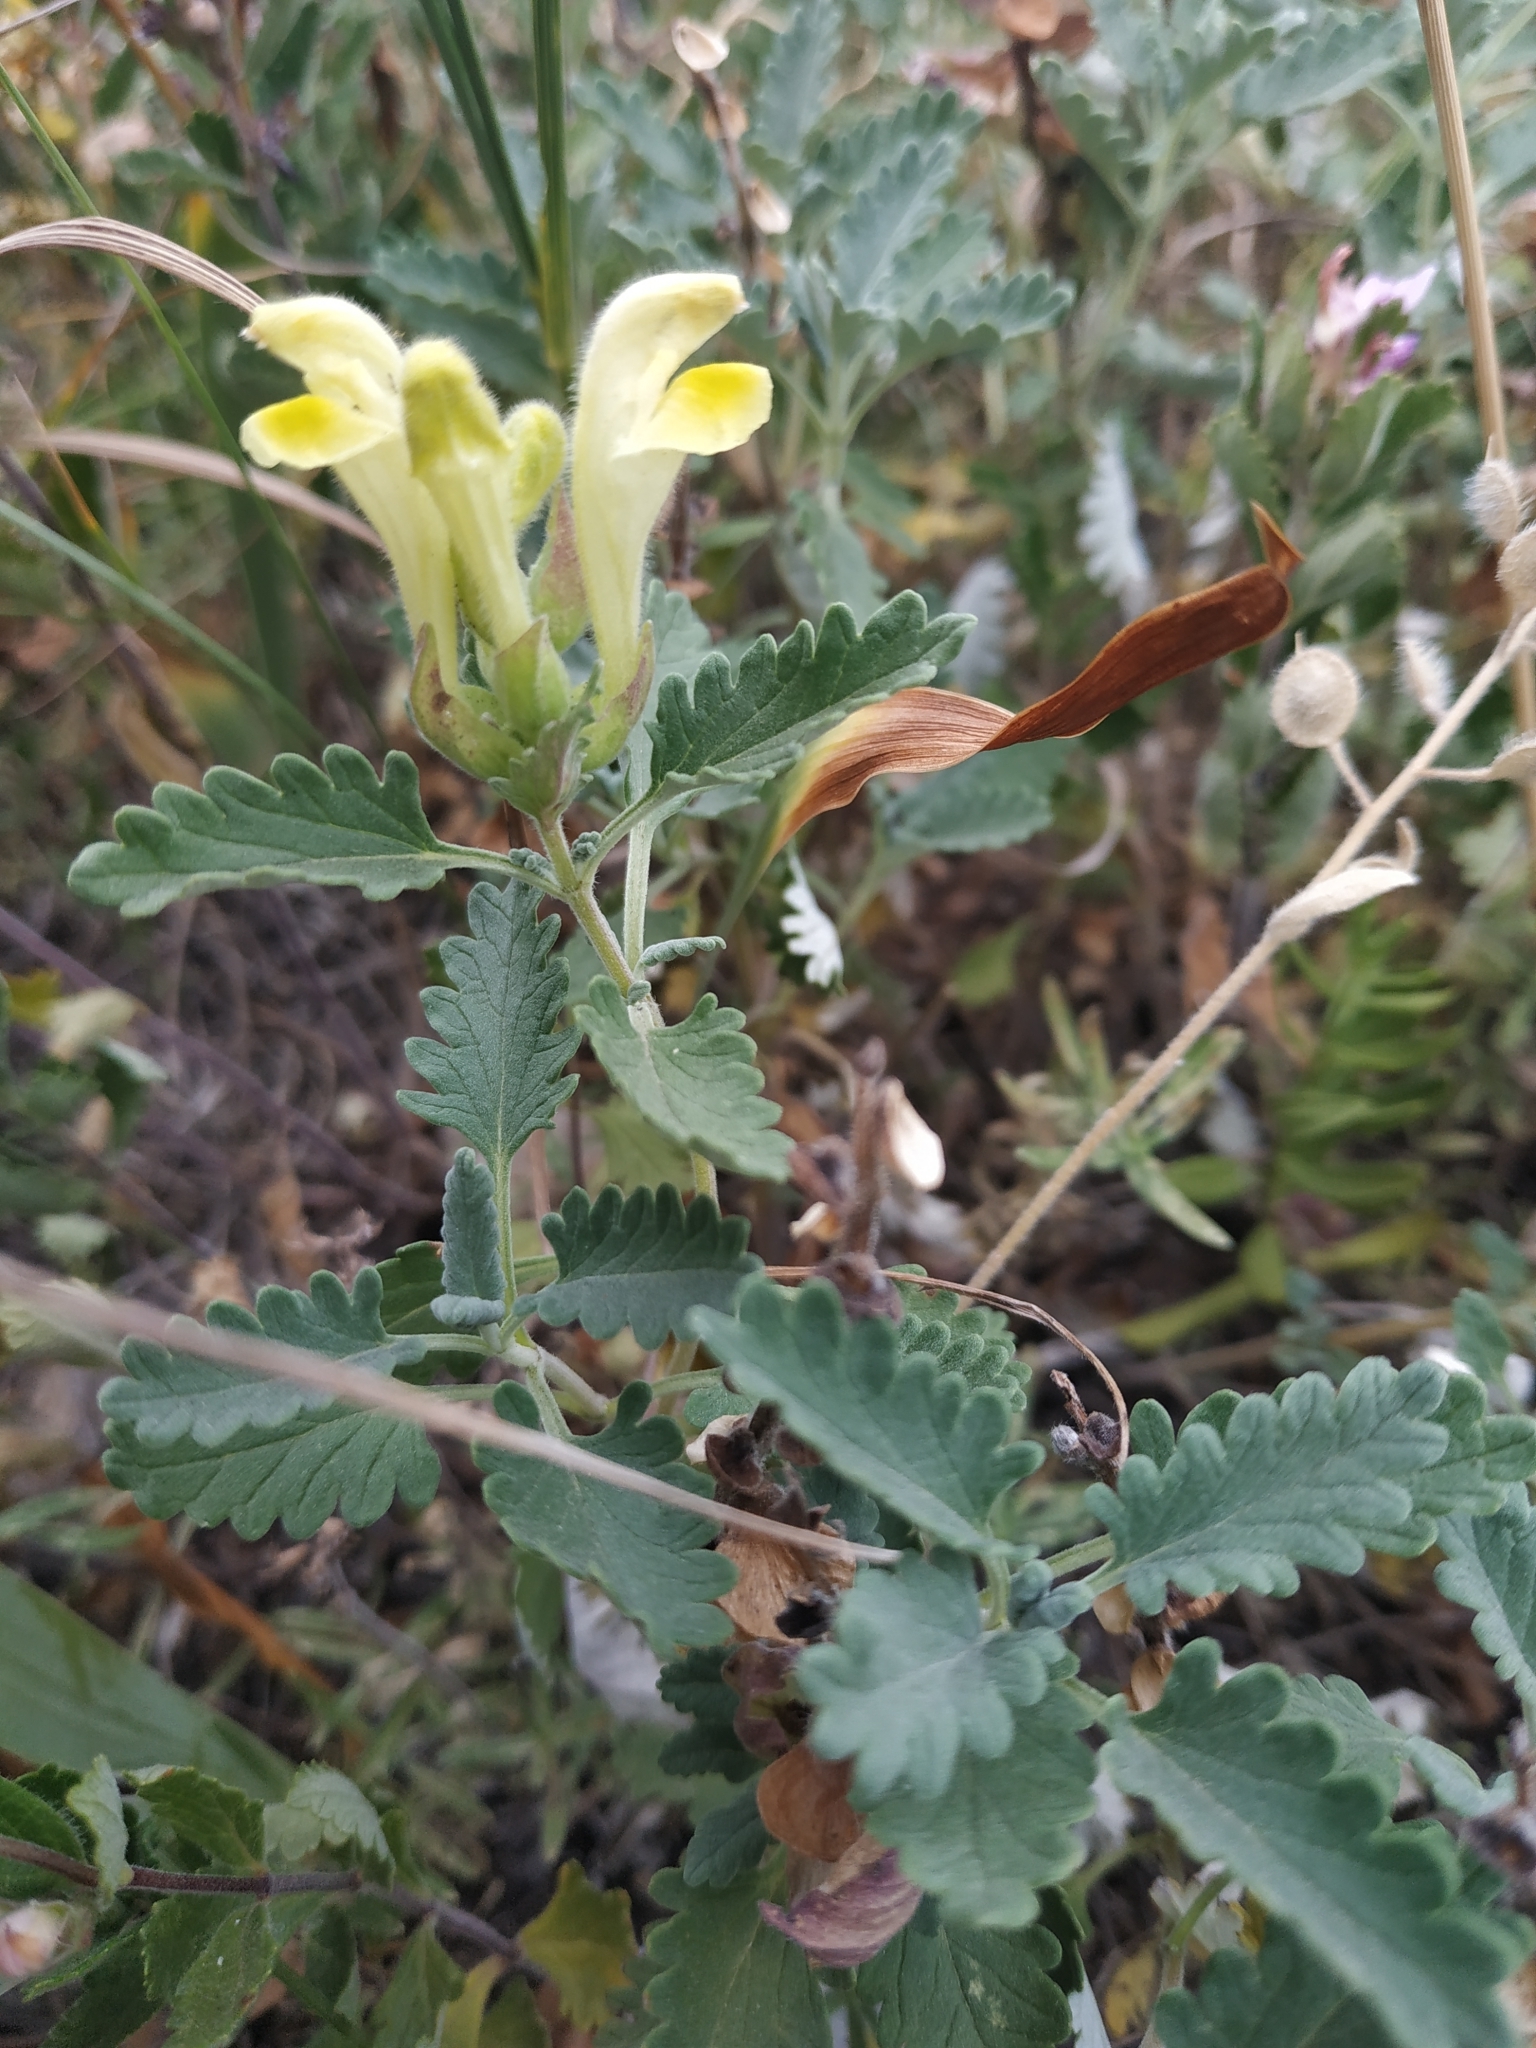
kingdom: Plantae
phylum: Tracheophyta
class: Magnoliopsida
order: Lamiales
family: Lamiaceae
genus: Scutellaria
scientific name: Scutellaria orientalis
